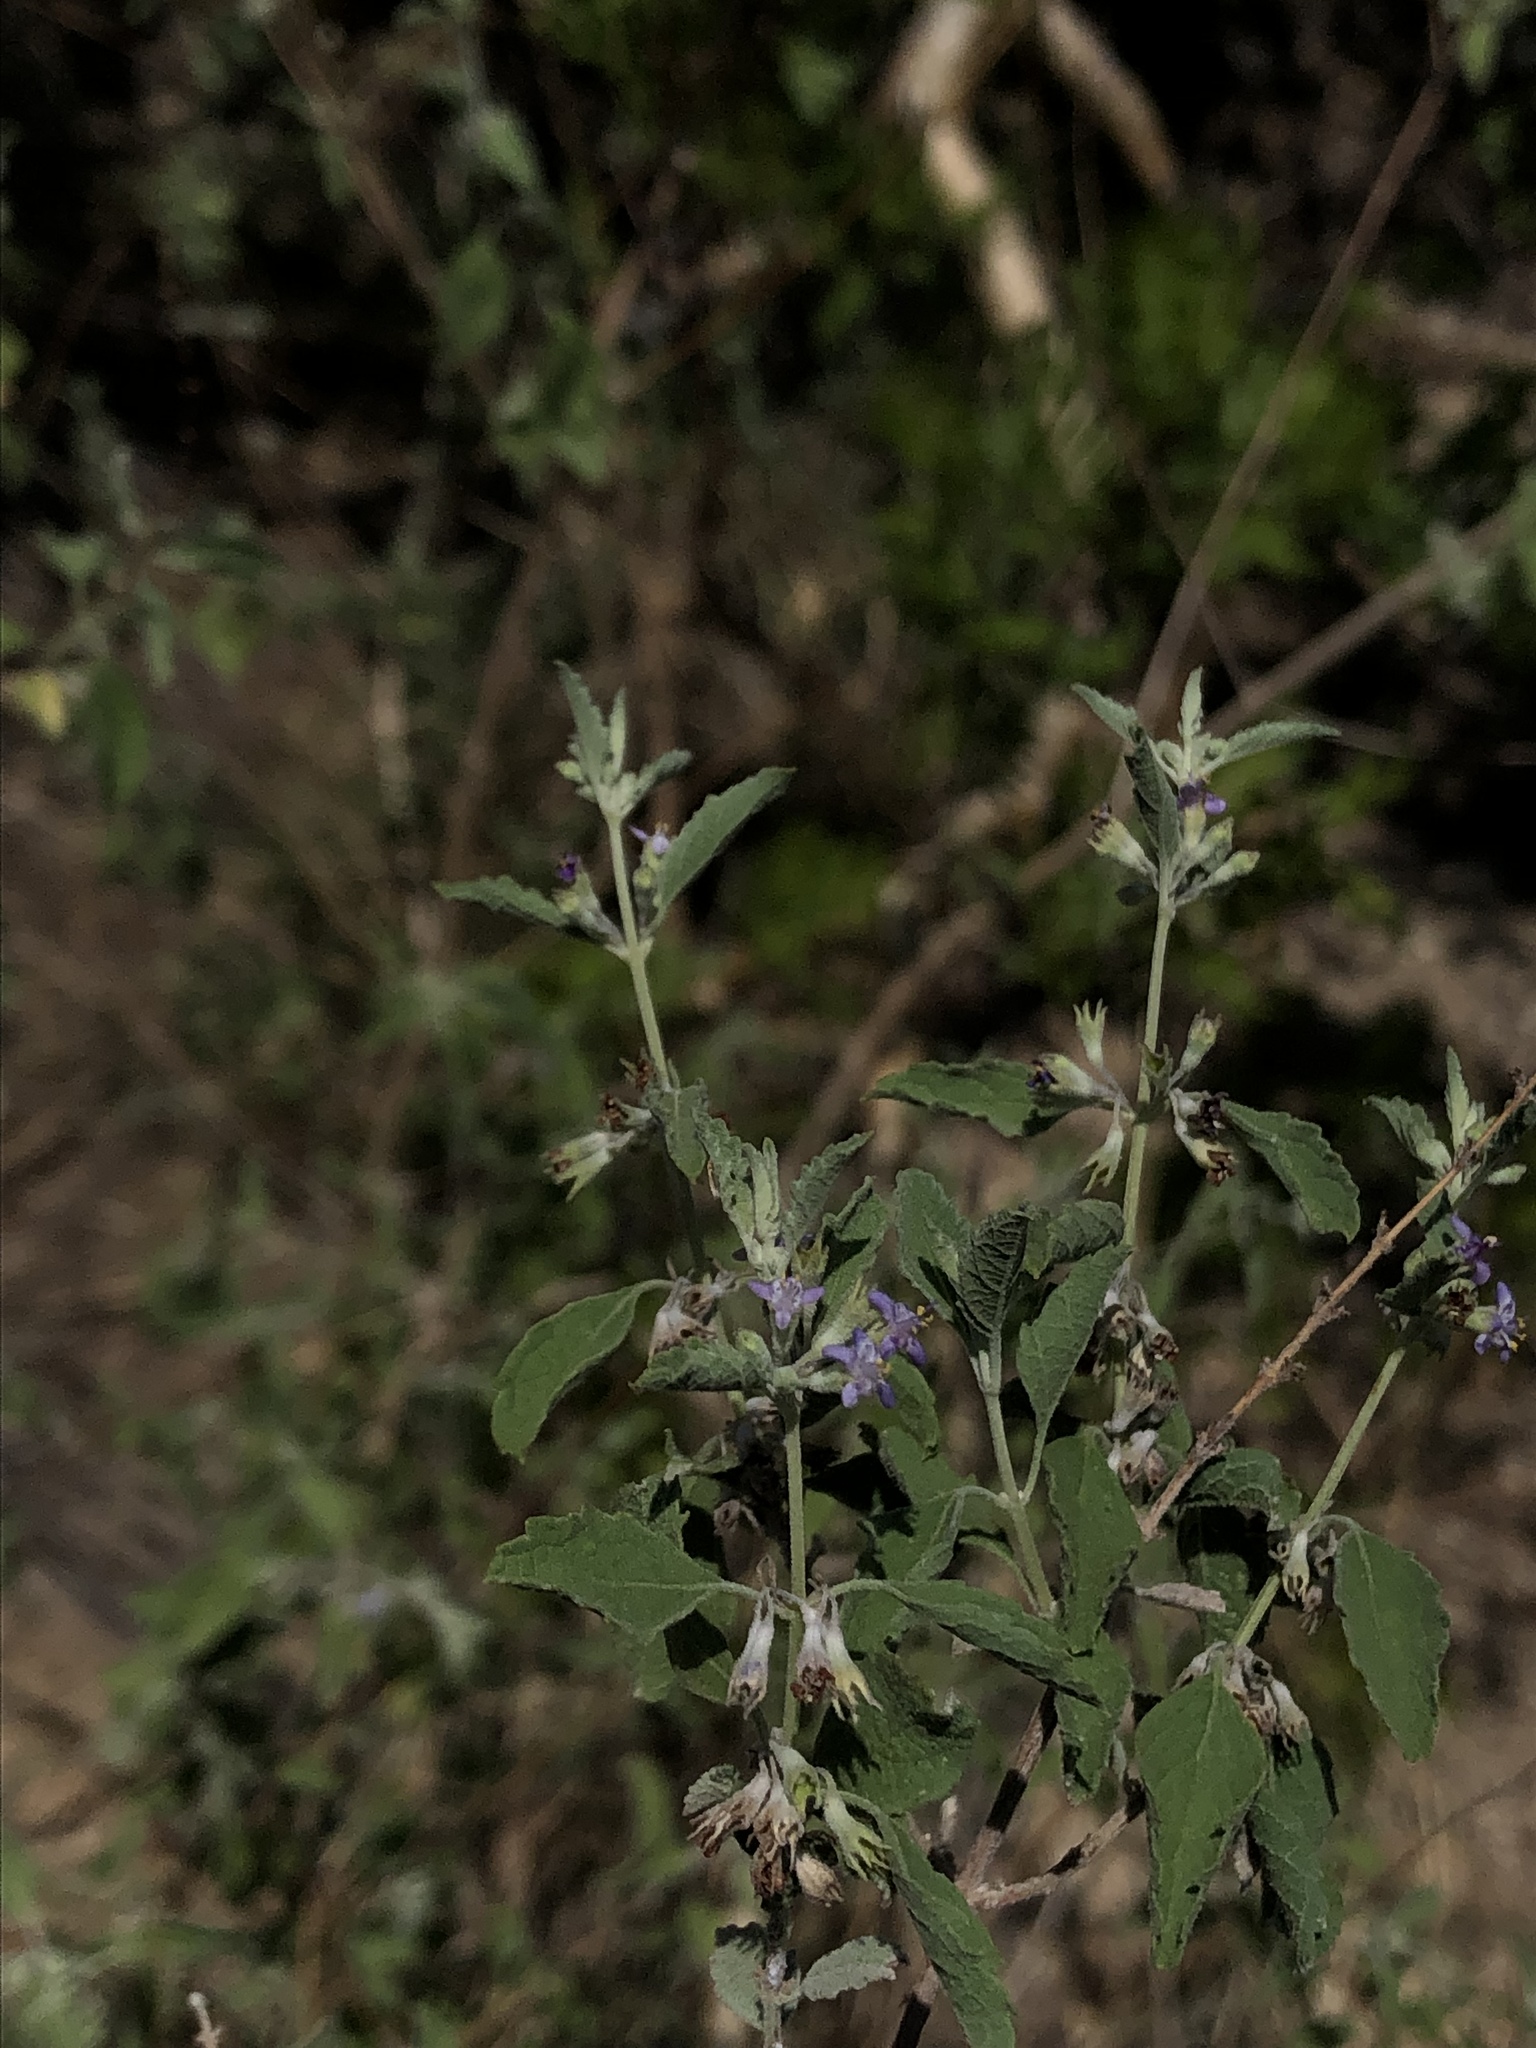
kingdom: Plantae
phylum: Tracheophyta
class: Magnoliopsida
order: Lamiales
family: Lamiaceae
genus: Condea
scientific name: Condea emoryi
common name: Chia
